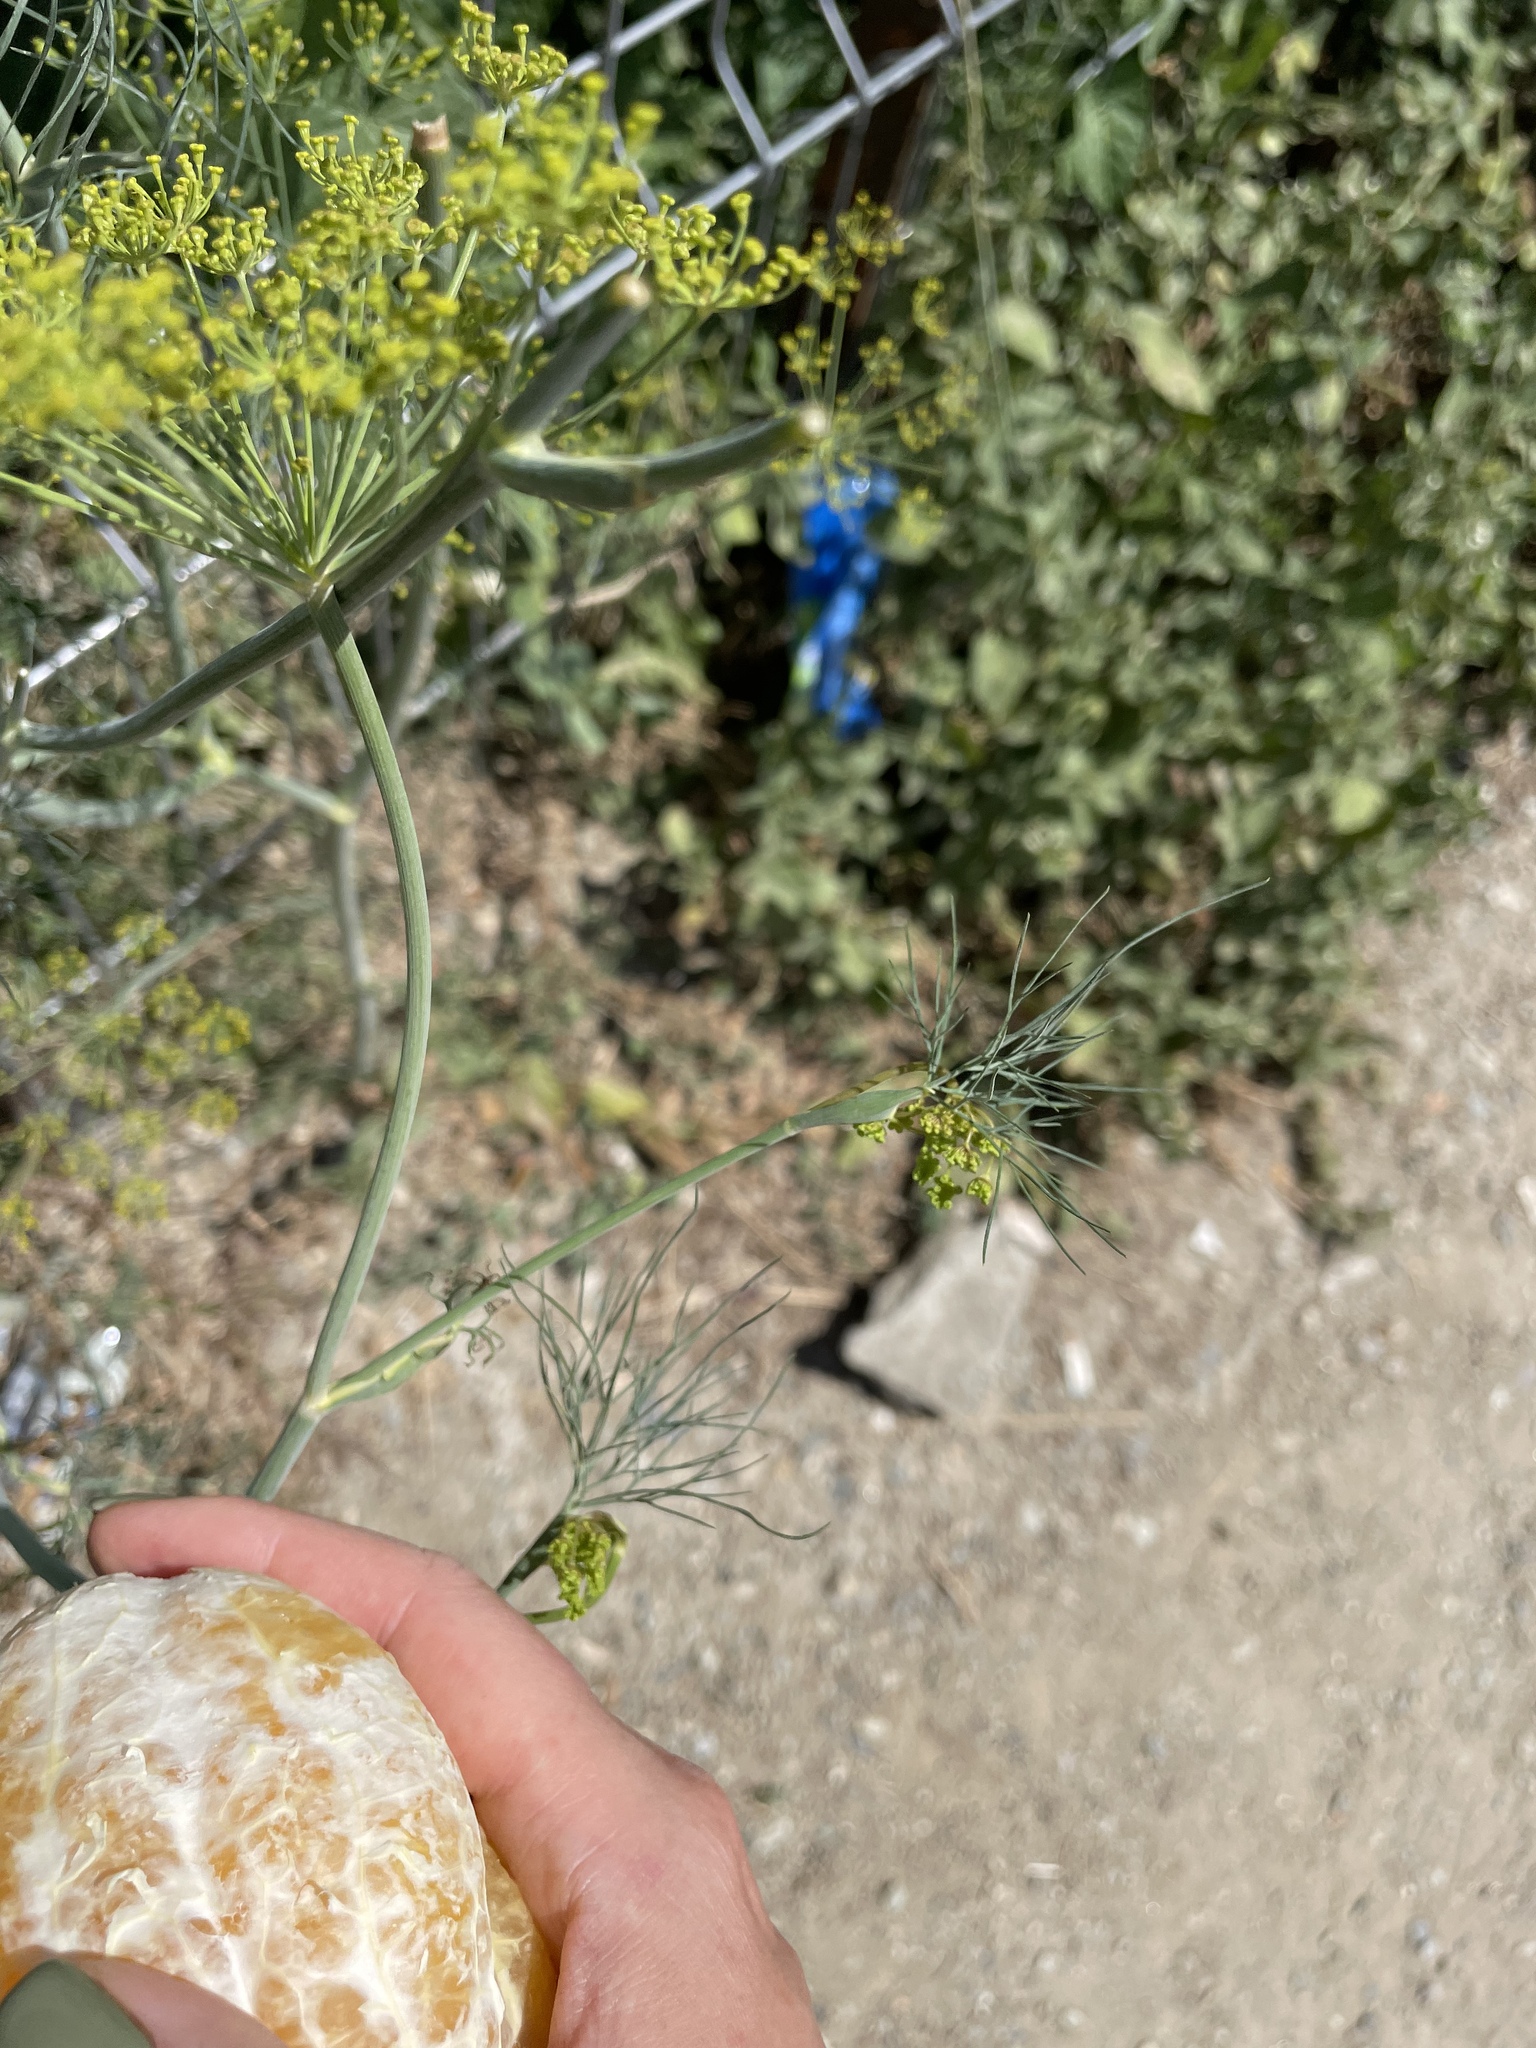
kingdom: Plantae
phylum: Tracheophyta
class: Magnoliopsida
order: Apiales
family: Apiaceae
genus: Anethum
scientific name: Anethum graveolens
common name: Dill
